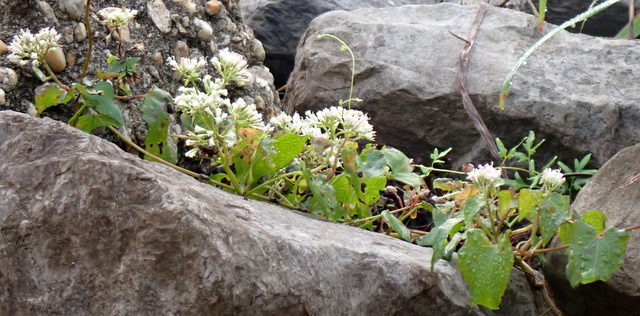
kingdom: Plantae
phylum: Tracheophyta
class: Magnoliopsida
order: Asterales
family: Asteraceae
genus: Mikania
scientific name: Mikania scandens
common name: Climbing hempvine
